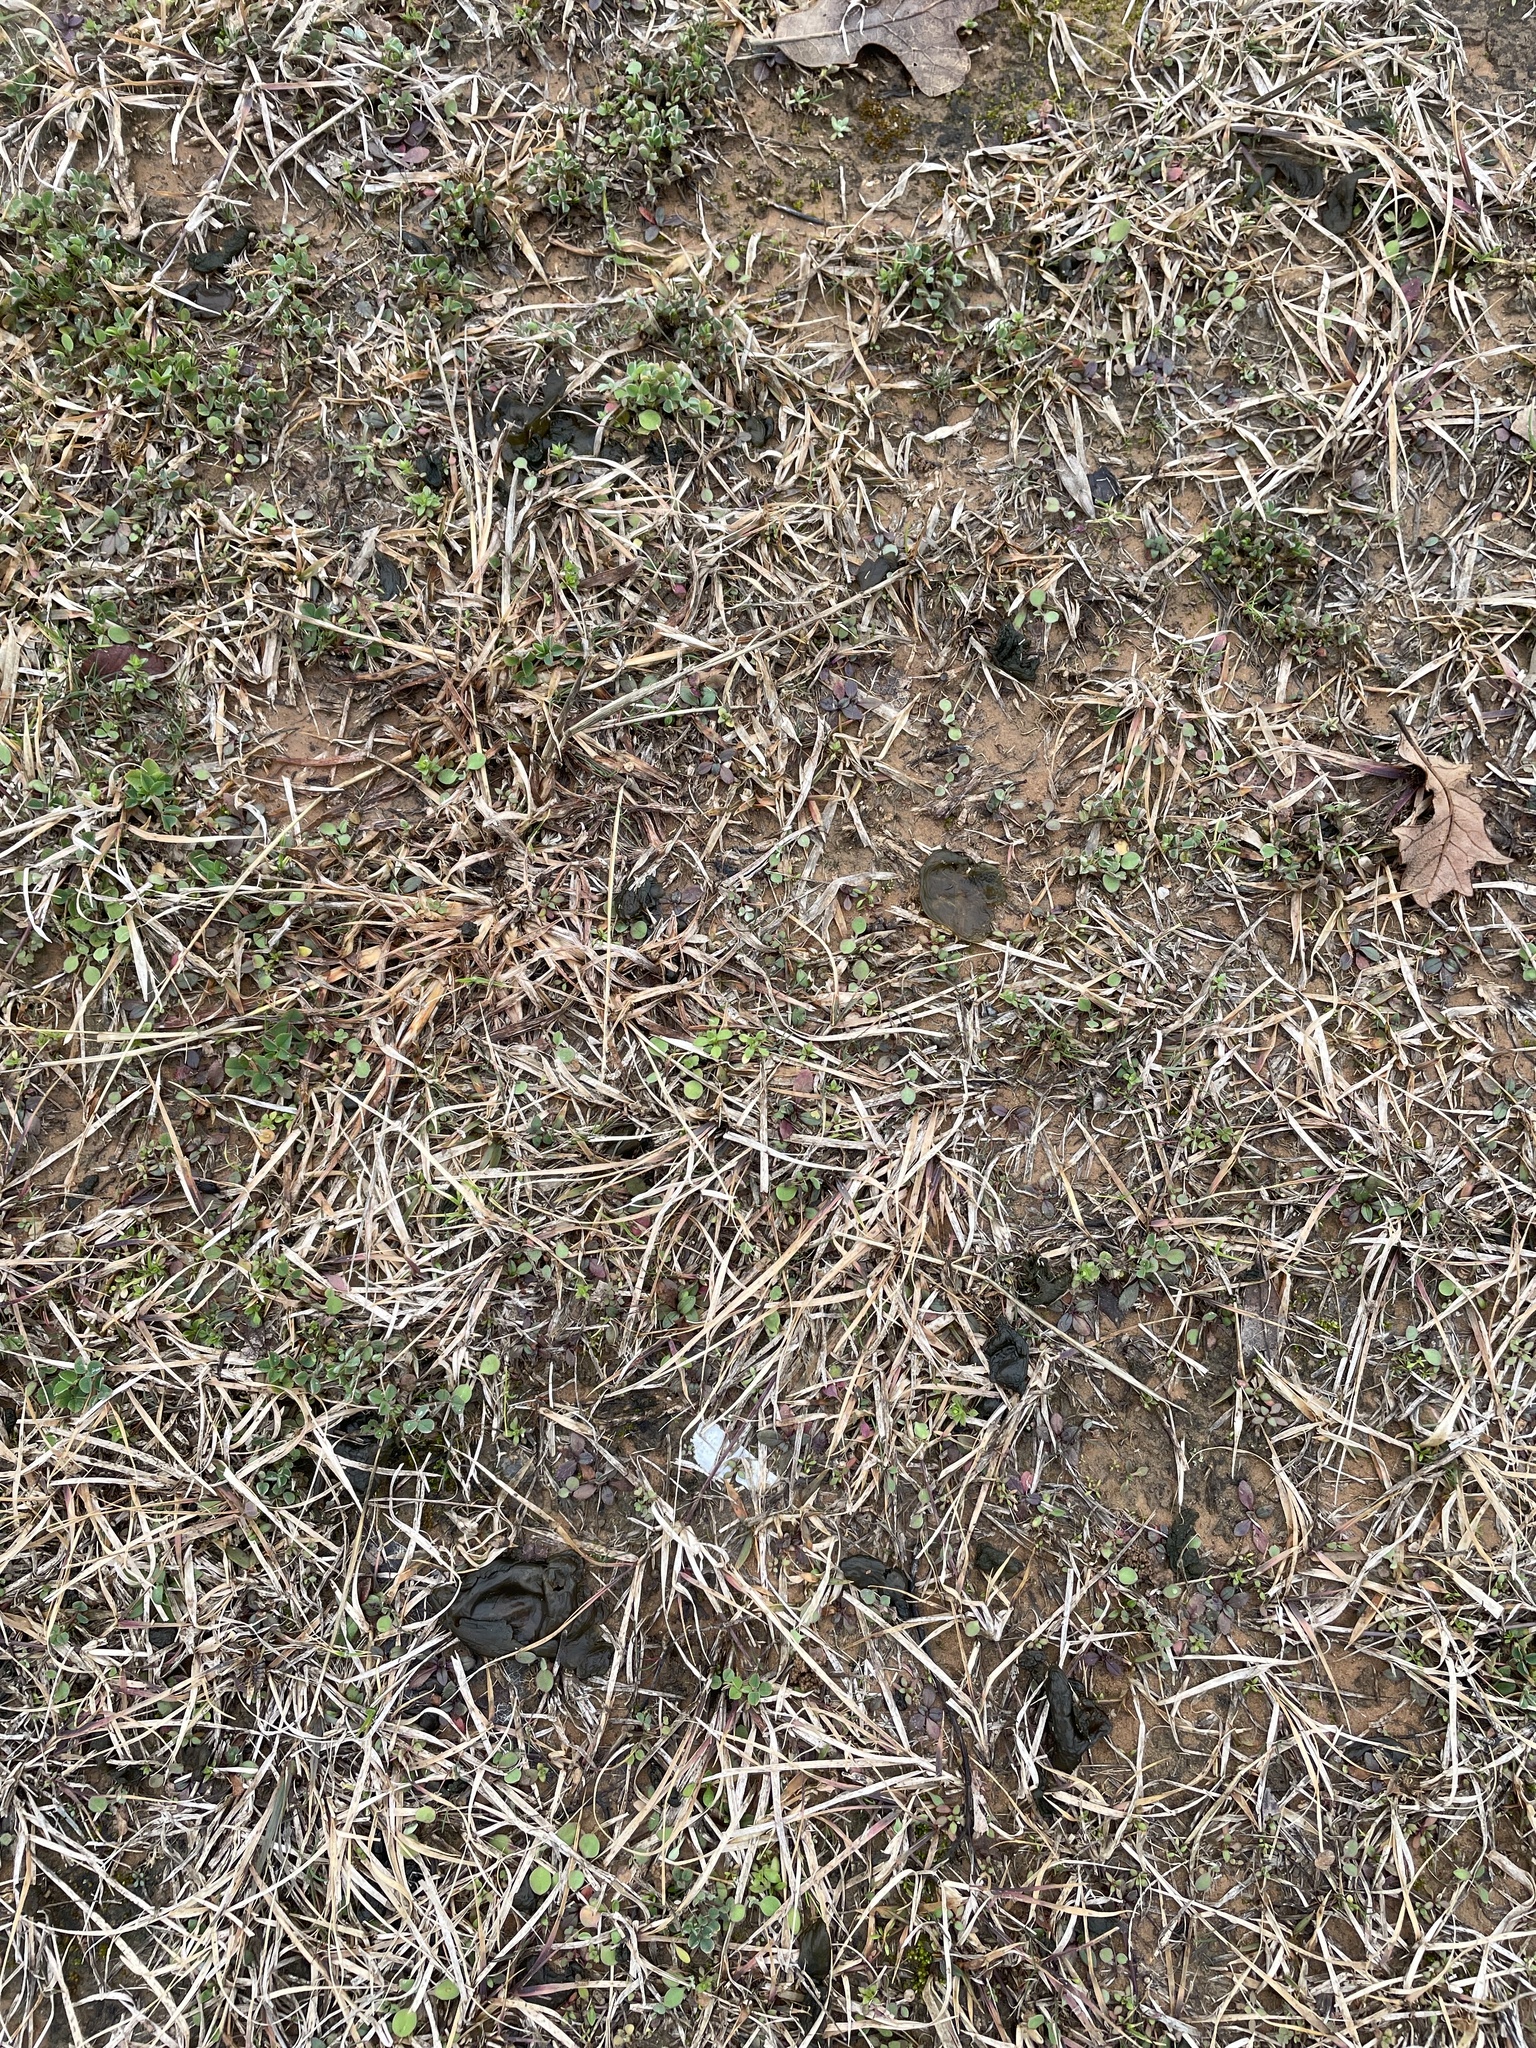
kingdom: Bacteria
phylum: Cyanobacteria
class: Cyanobacteriia
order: Cyanobacteriales
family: Nostocaceae
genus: Nostoc
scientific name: Nostoc commune
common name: Star jelly
